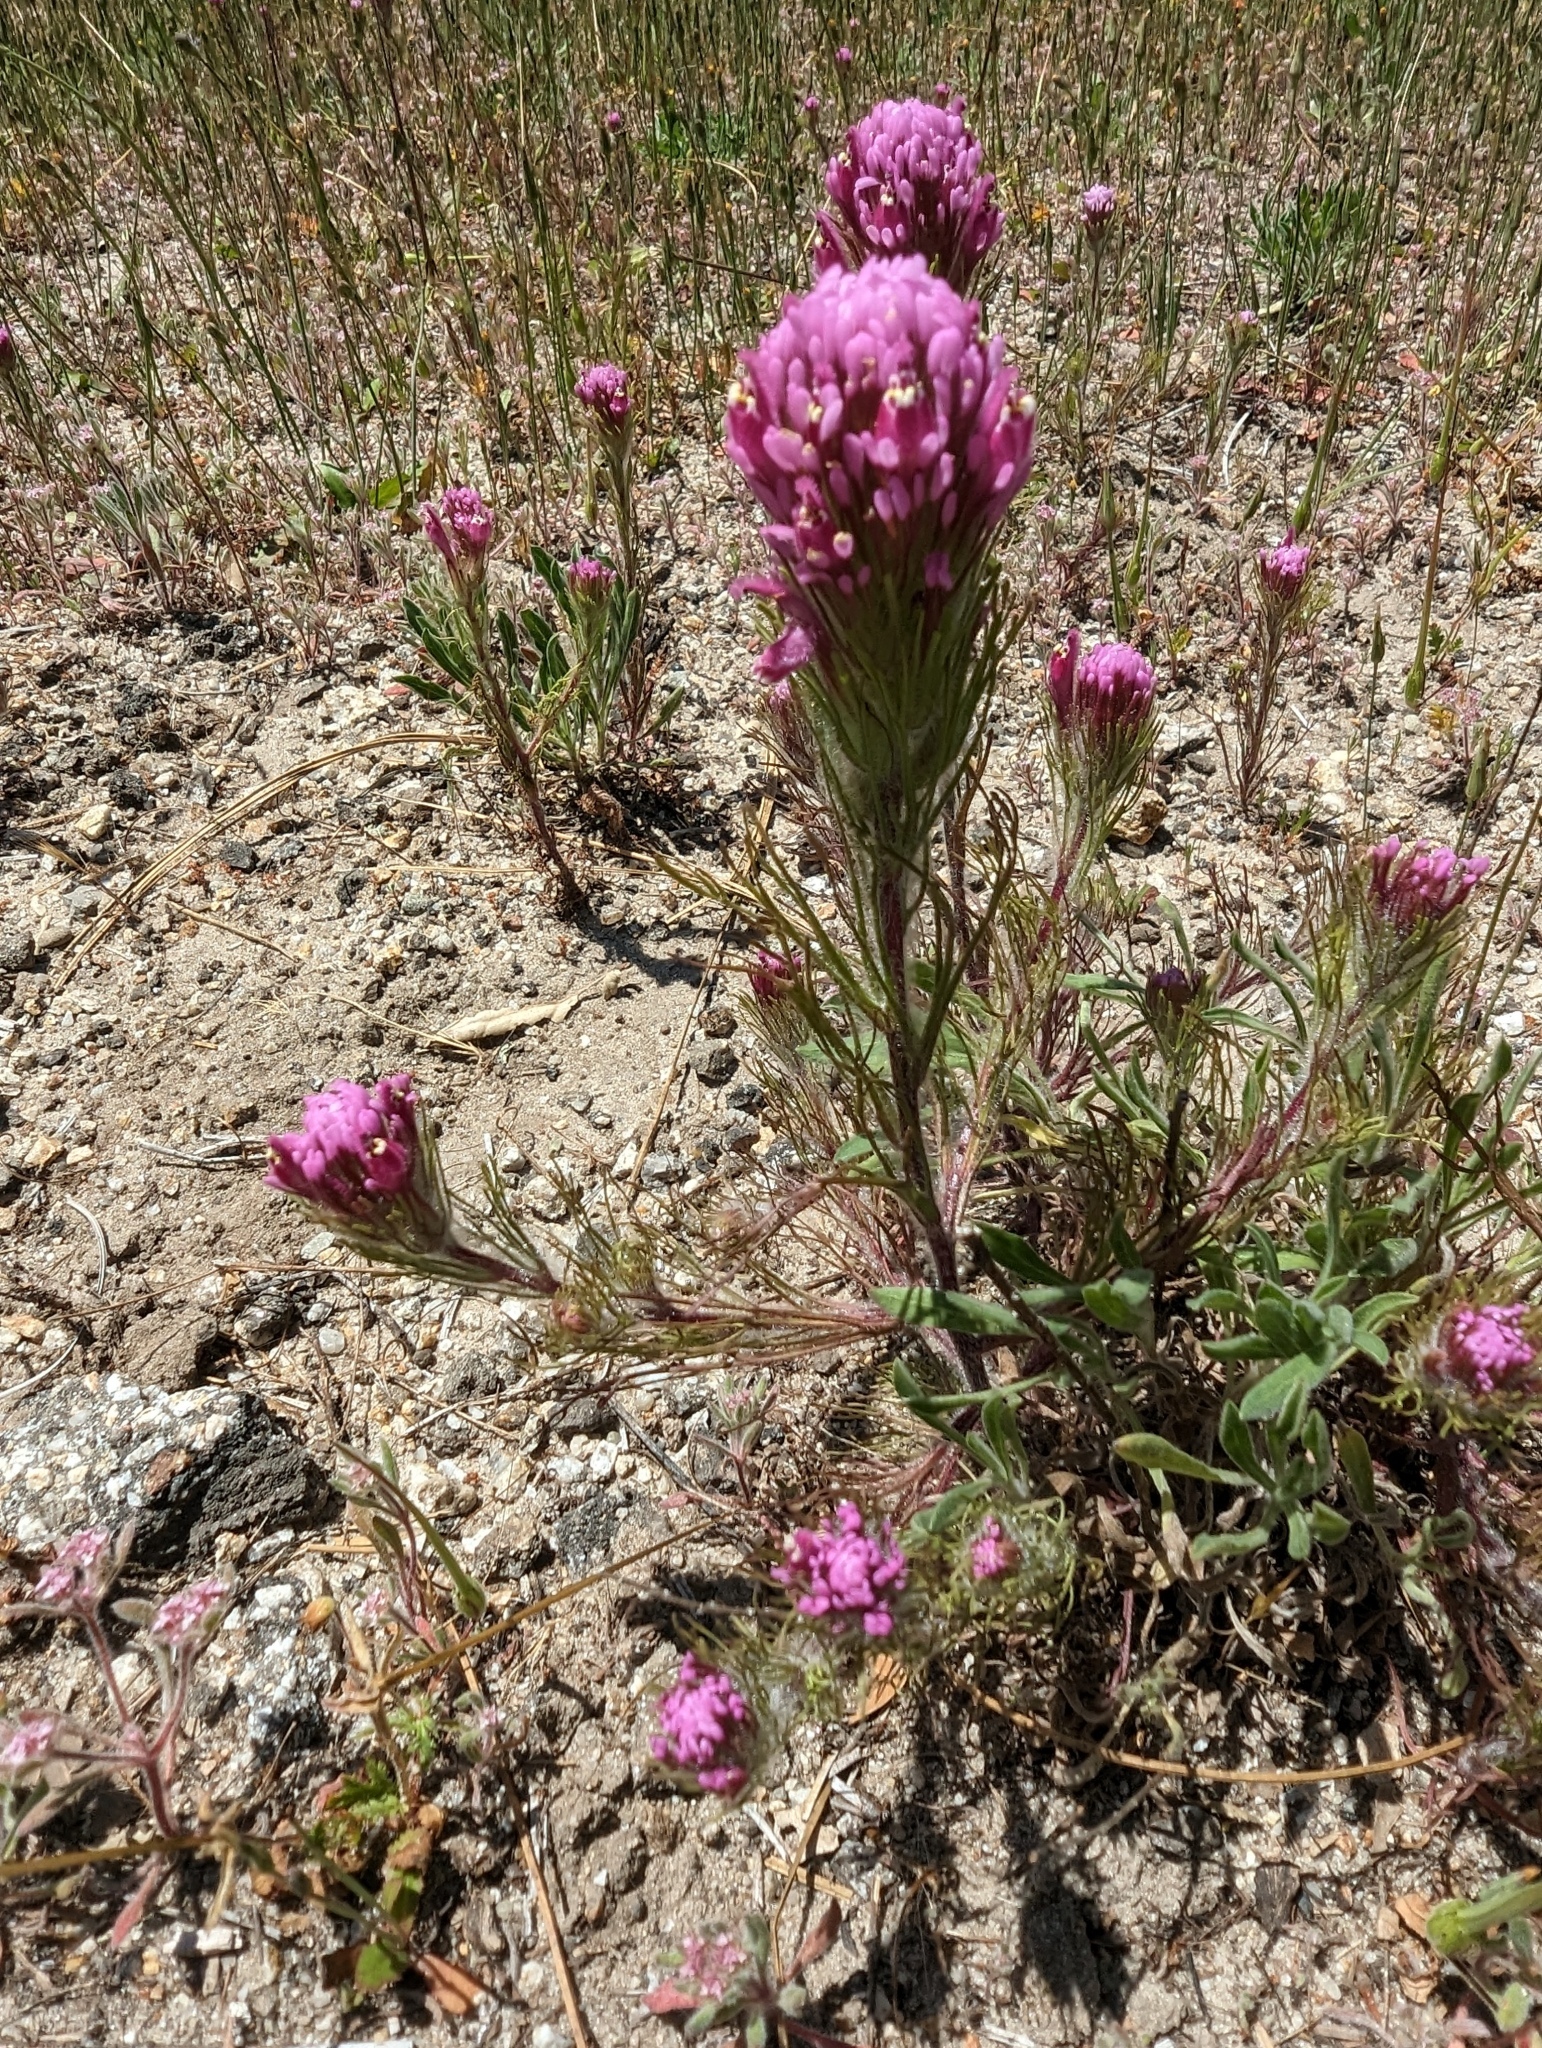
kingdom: Plantae
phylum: Tracheophyta
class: Magnoliopsida
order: Lamiales
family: Orobanchaceae
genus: Castilleja
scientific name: Castilleja exserta
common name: Purple owl-clover
